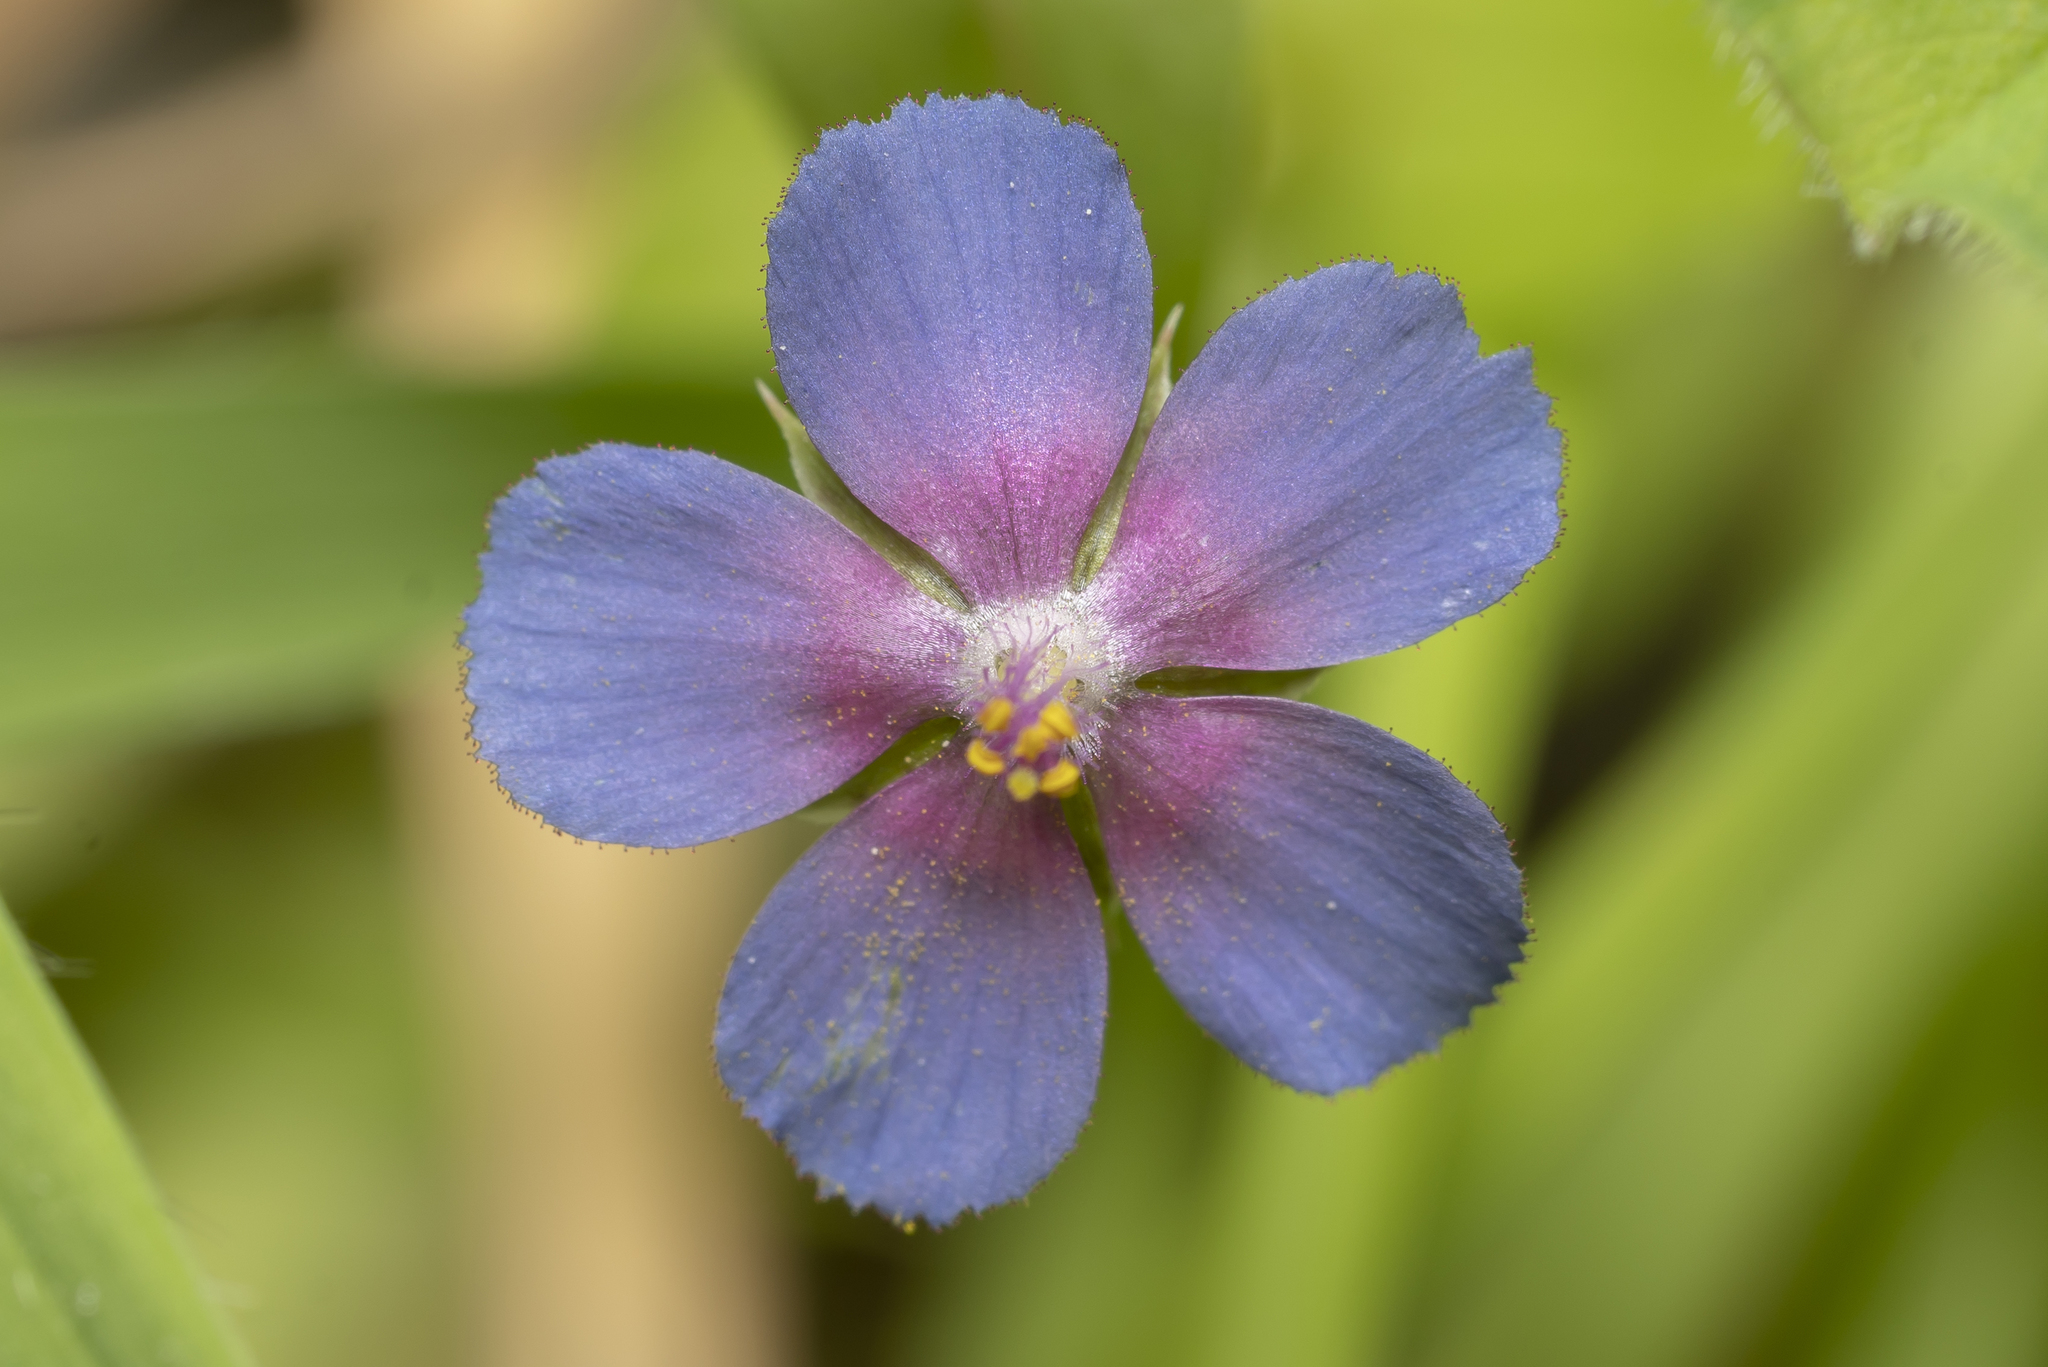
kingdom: Plantae
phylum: Tracheophyta
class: Magnoliopsida
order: Ericales
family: Primulaceae
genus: Lysimachia
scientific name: Lysimachia loeflingii
